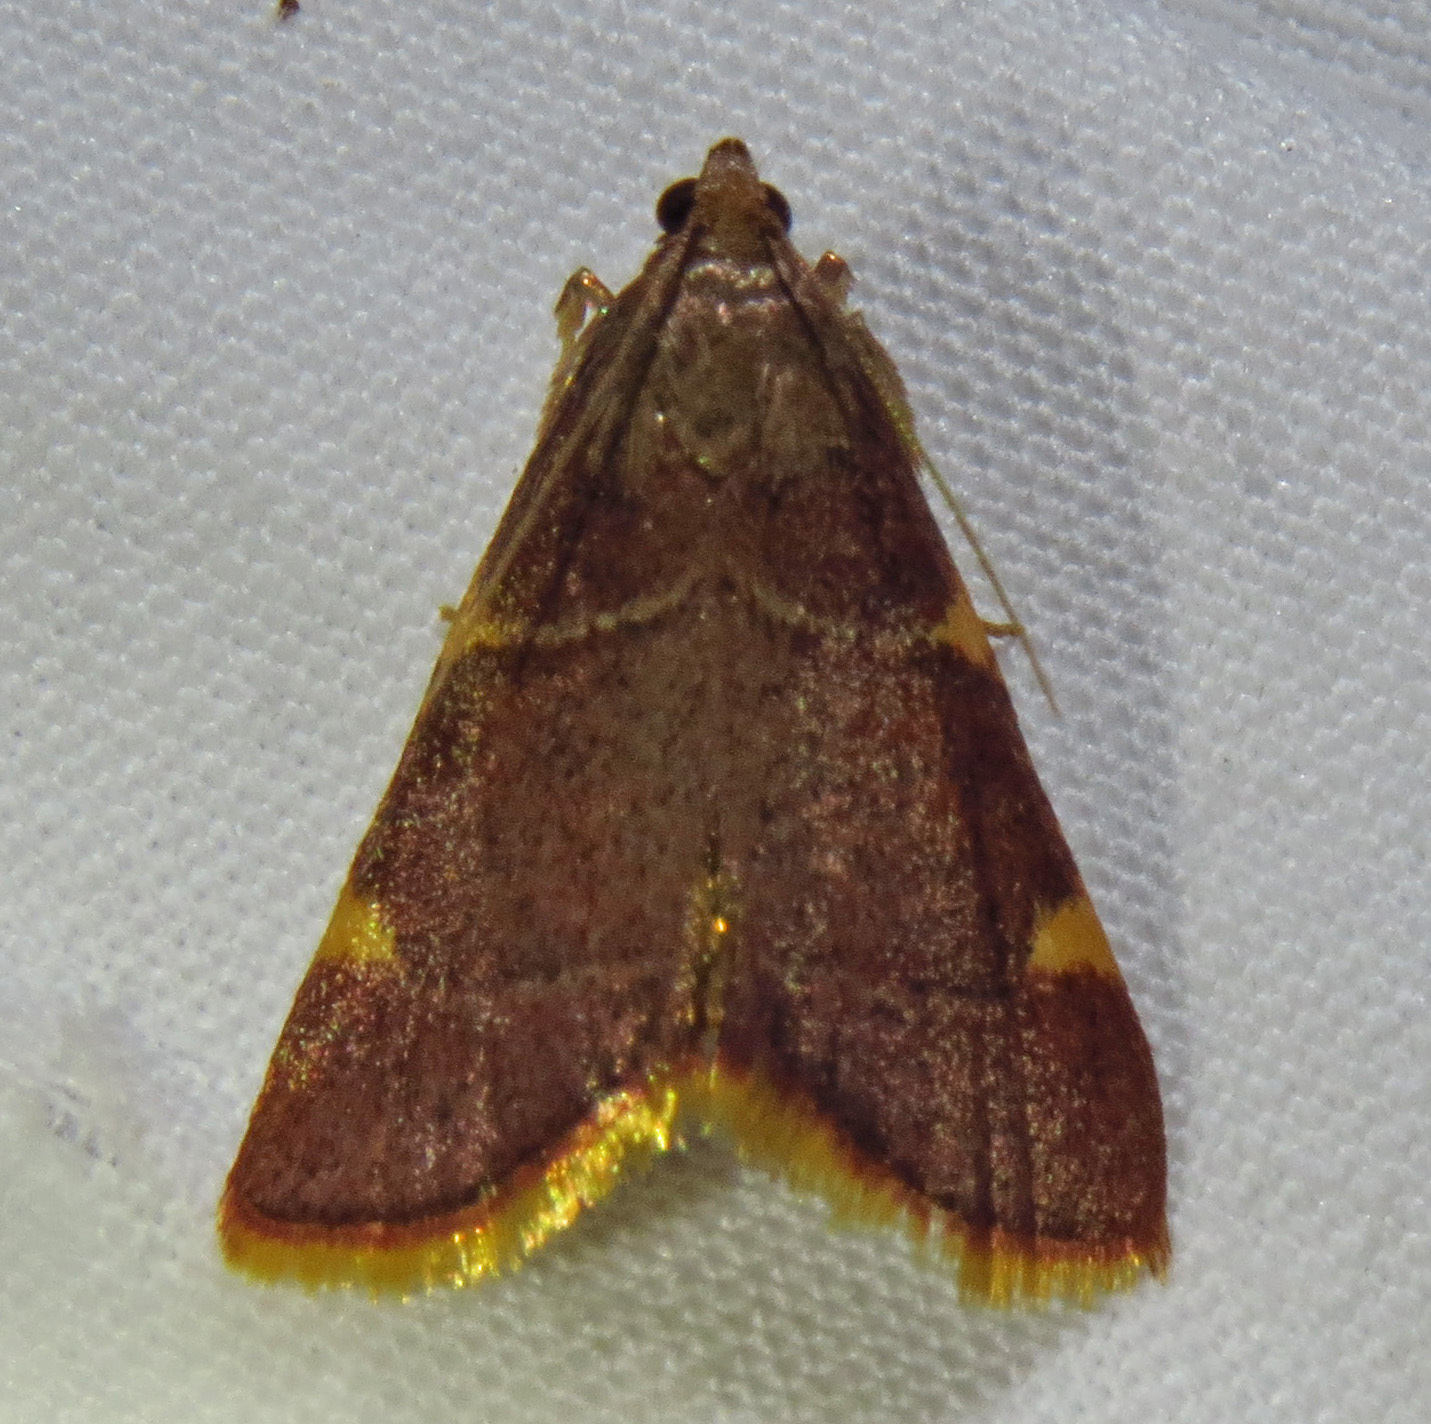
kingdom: Animalia
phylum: Arthropoda
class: Insecta
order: Lepidoptera
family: Pyralidae
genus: Hypsopygia
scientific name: Hypsopygia olinalis
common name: Yellow-fringed dolichomia moth
